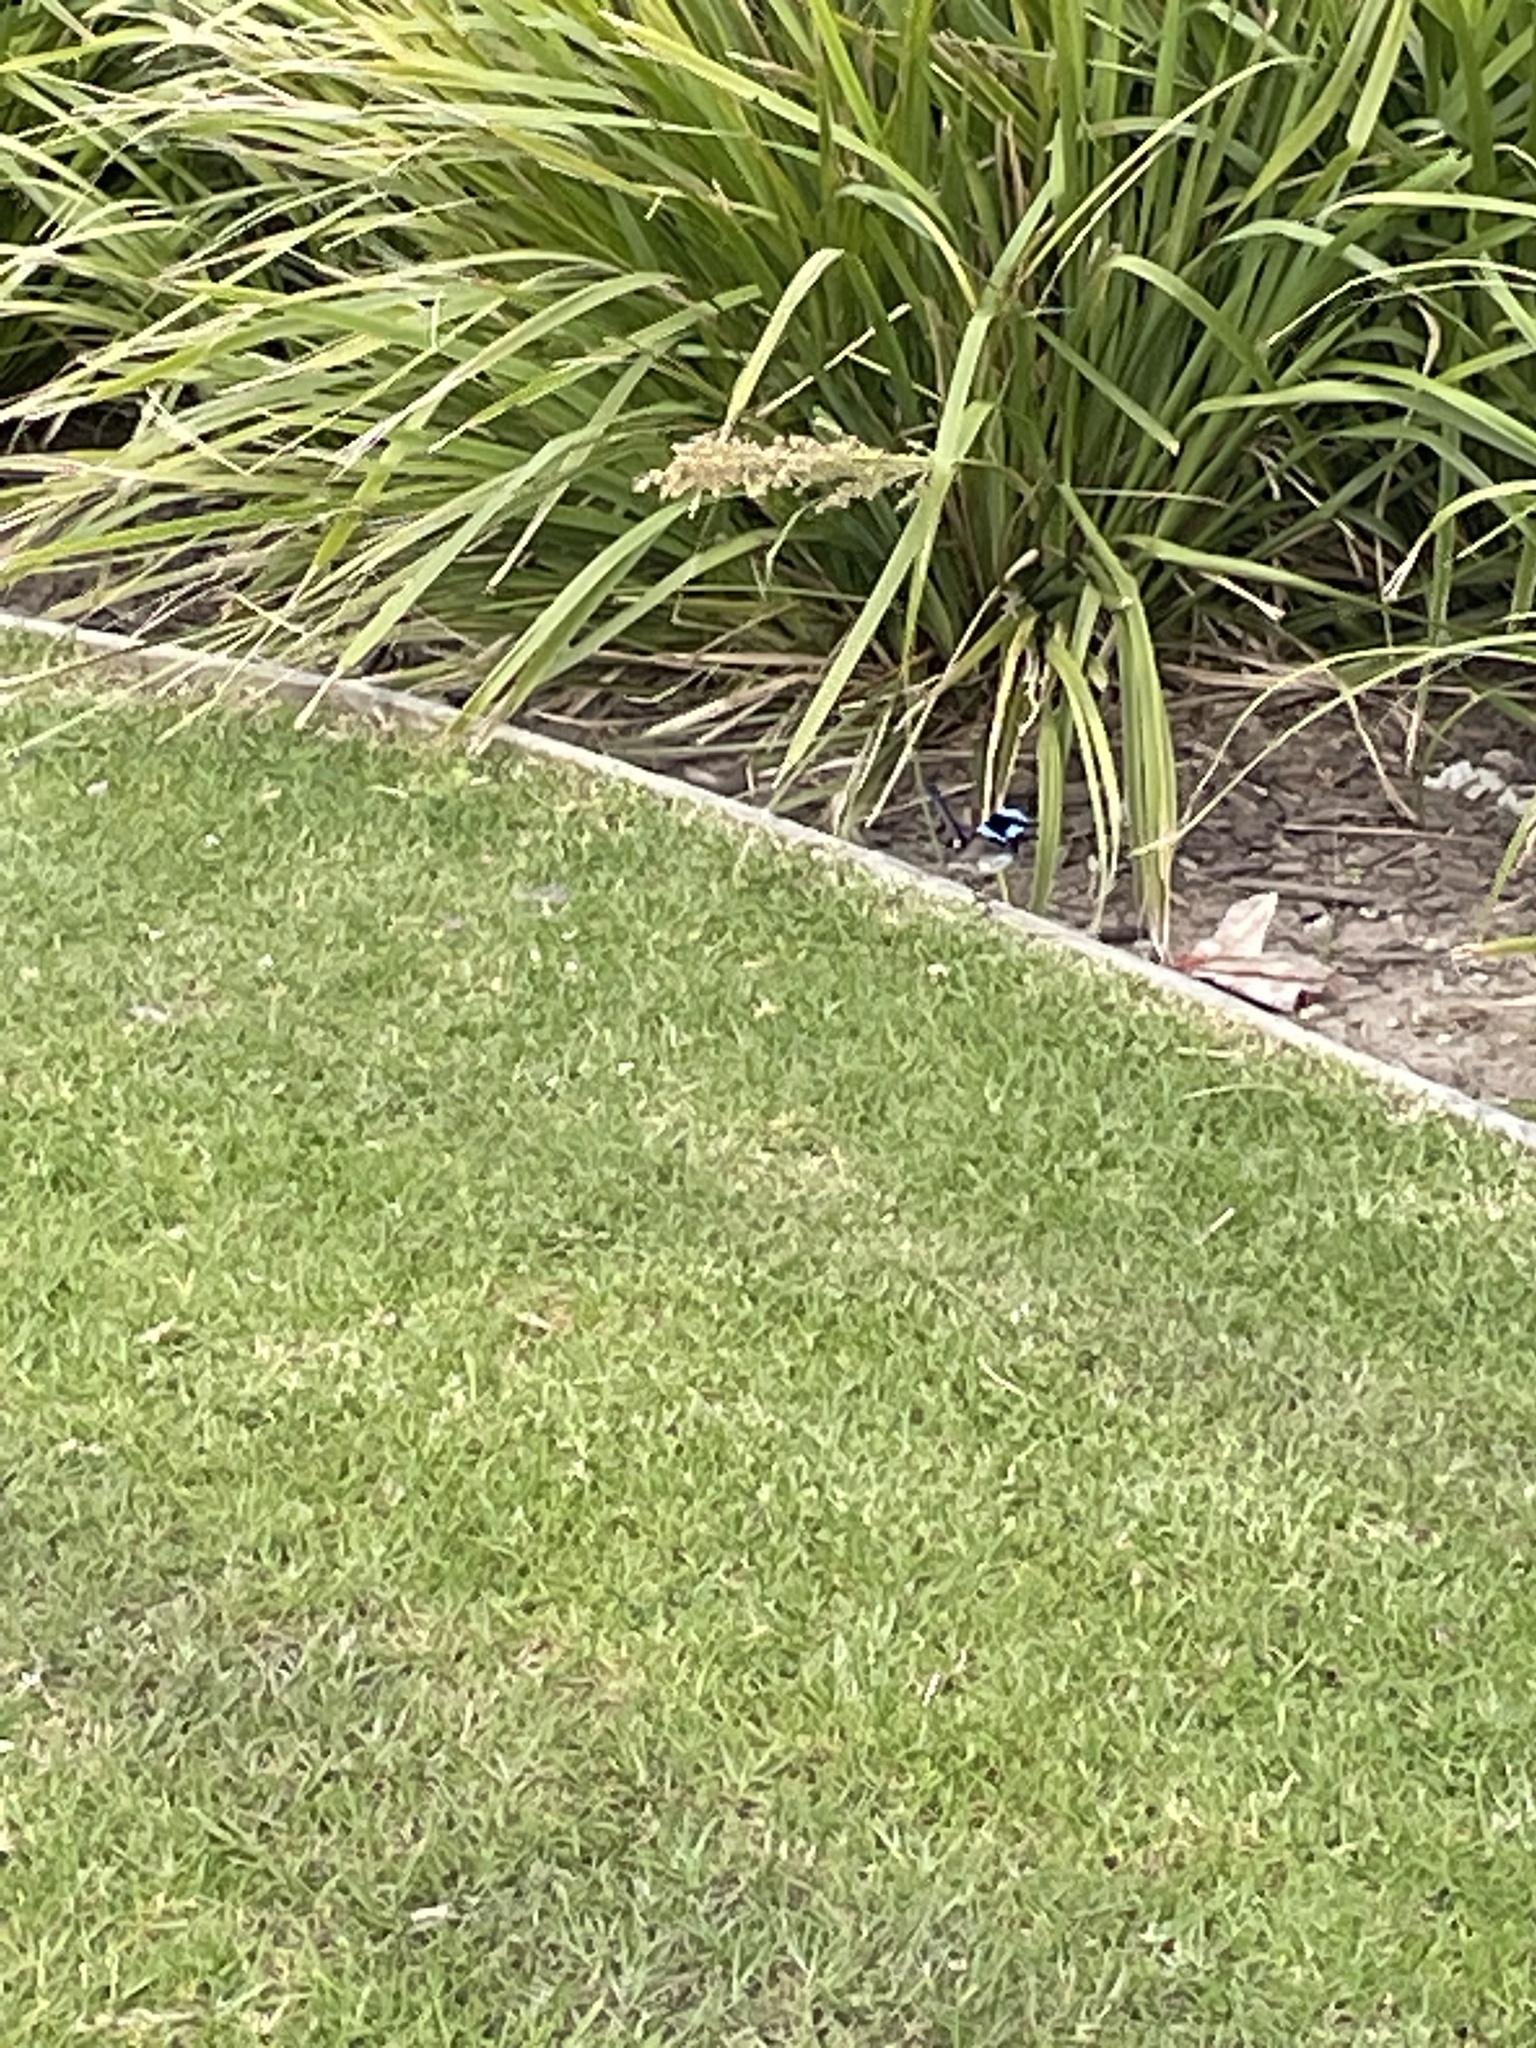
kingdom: Animalia
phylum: Chordata
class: Aves
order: Passeriformes
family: Maluridae
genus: Malurus
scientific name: Malurus cyaneus
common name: Superb fairywren
